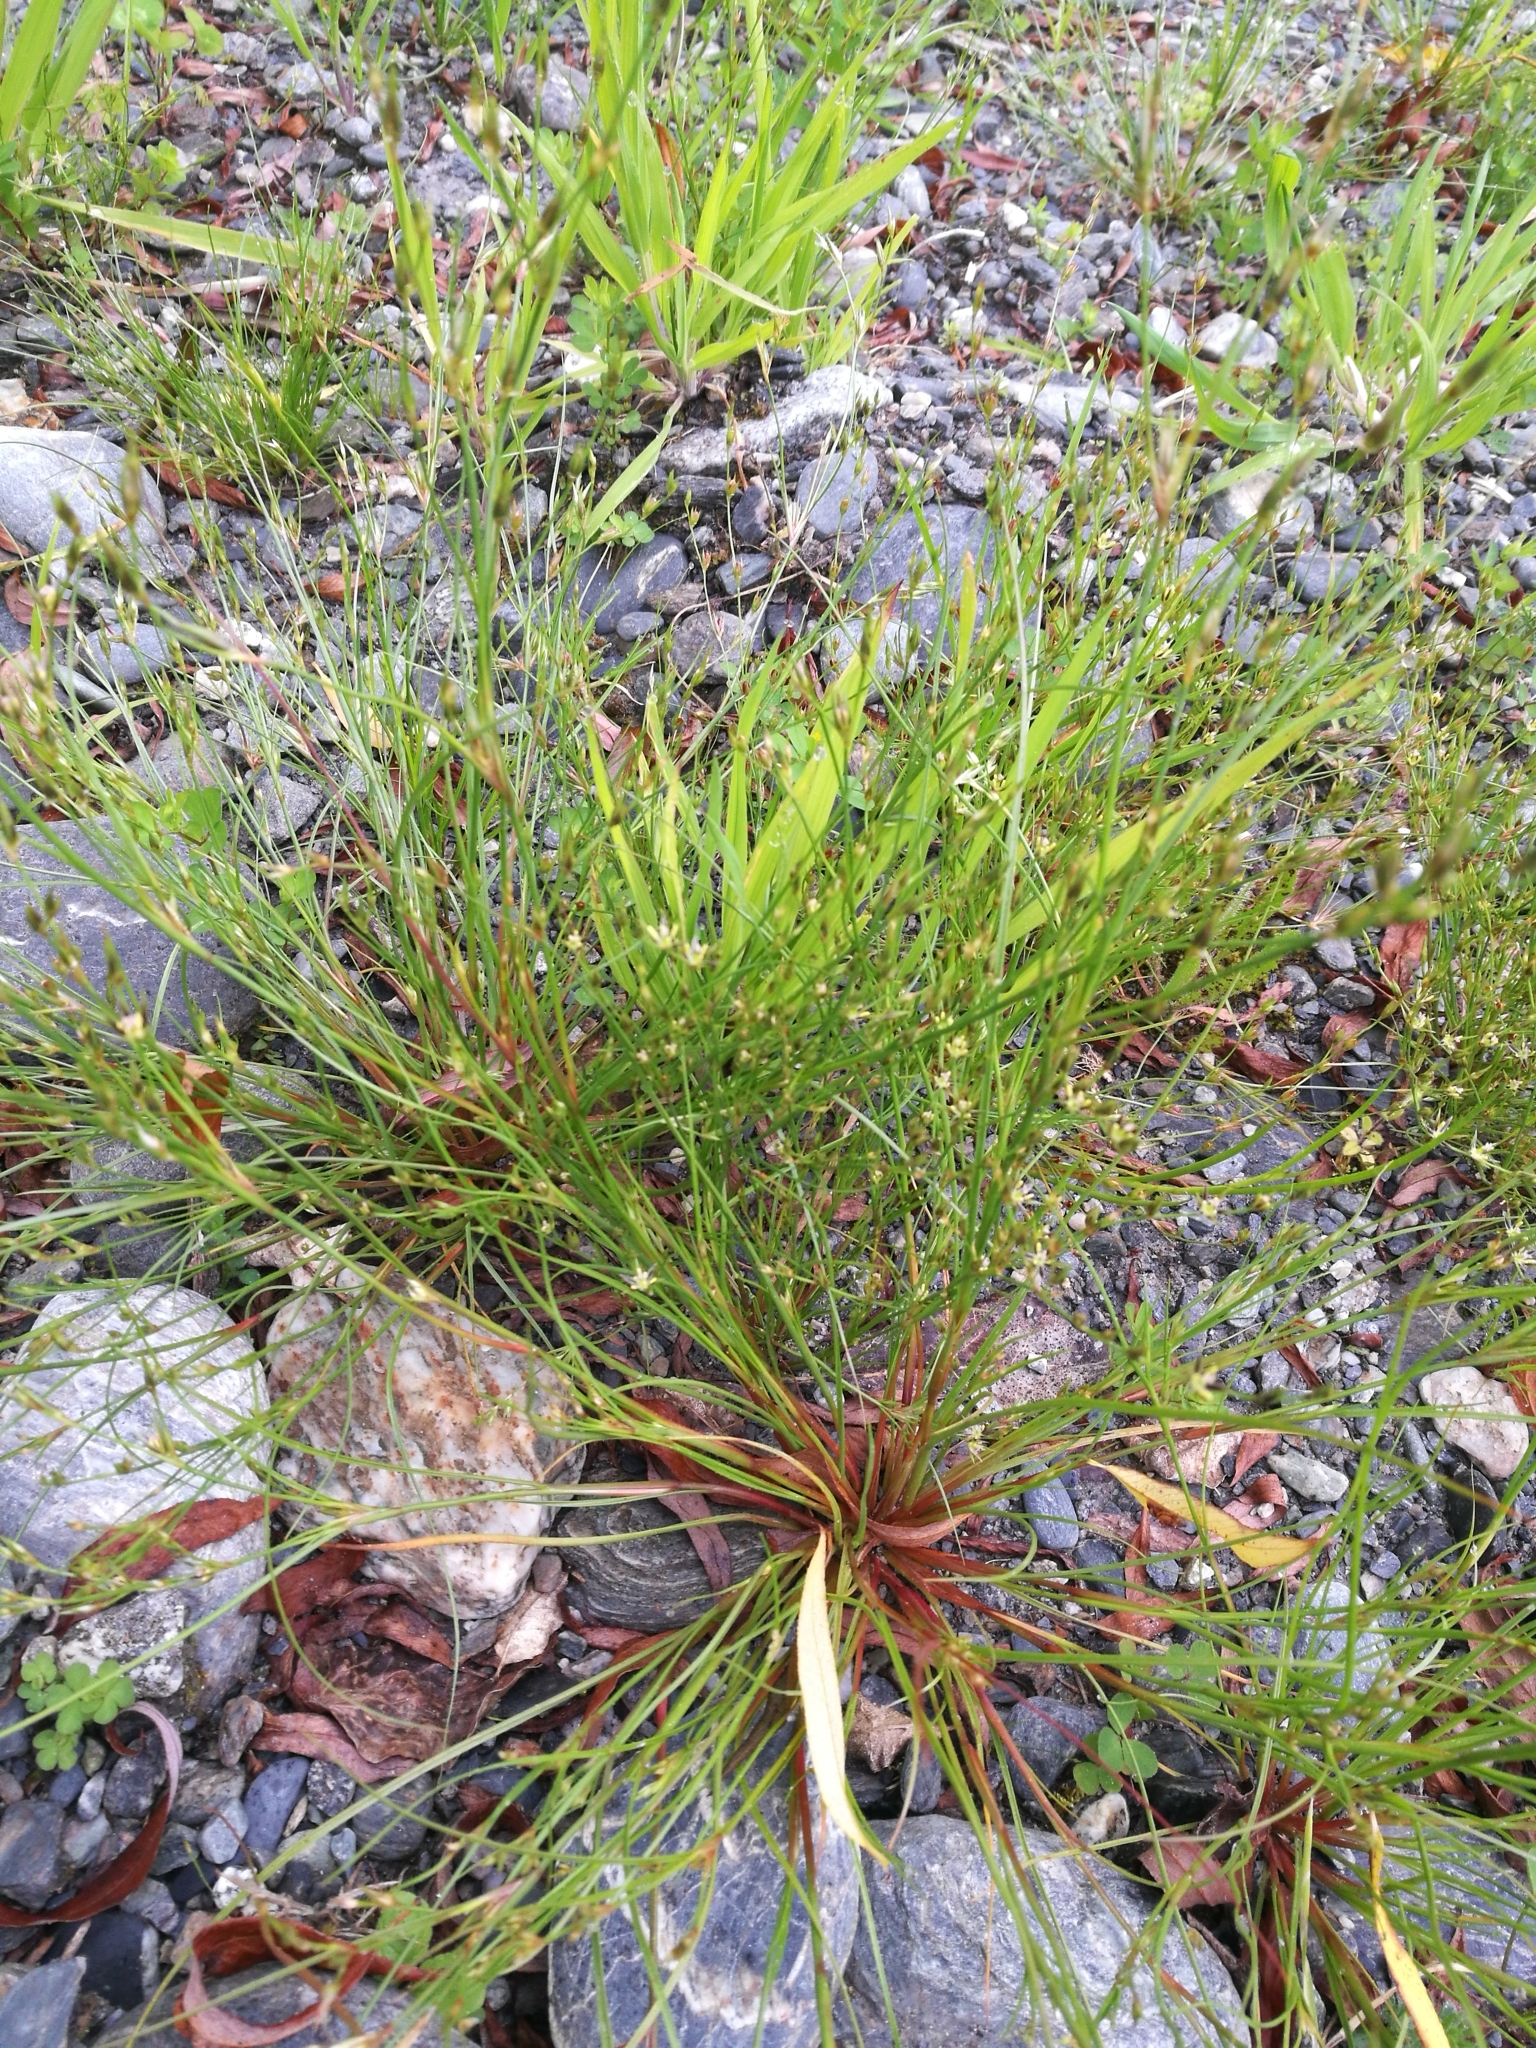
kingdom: Plantae
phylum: Tracheophyta
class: Liliopsida
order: Poales
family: Juncaceae
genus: Juncus
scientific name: Juncus bufonius
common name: Toad rush
